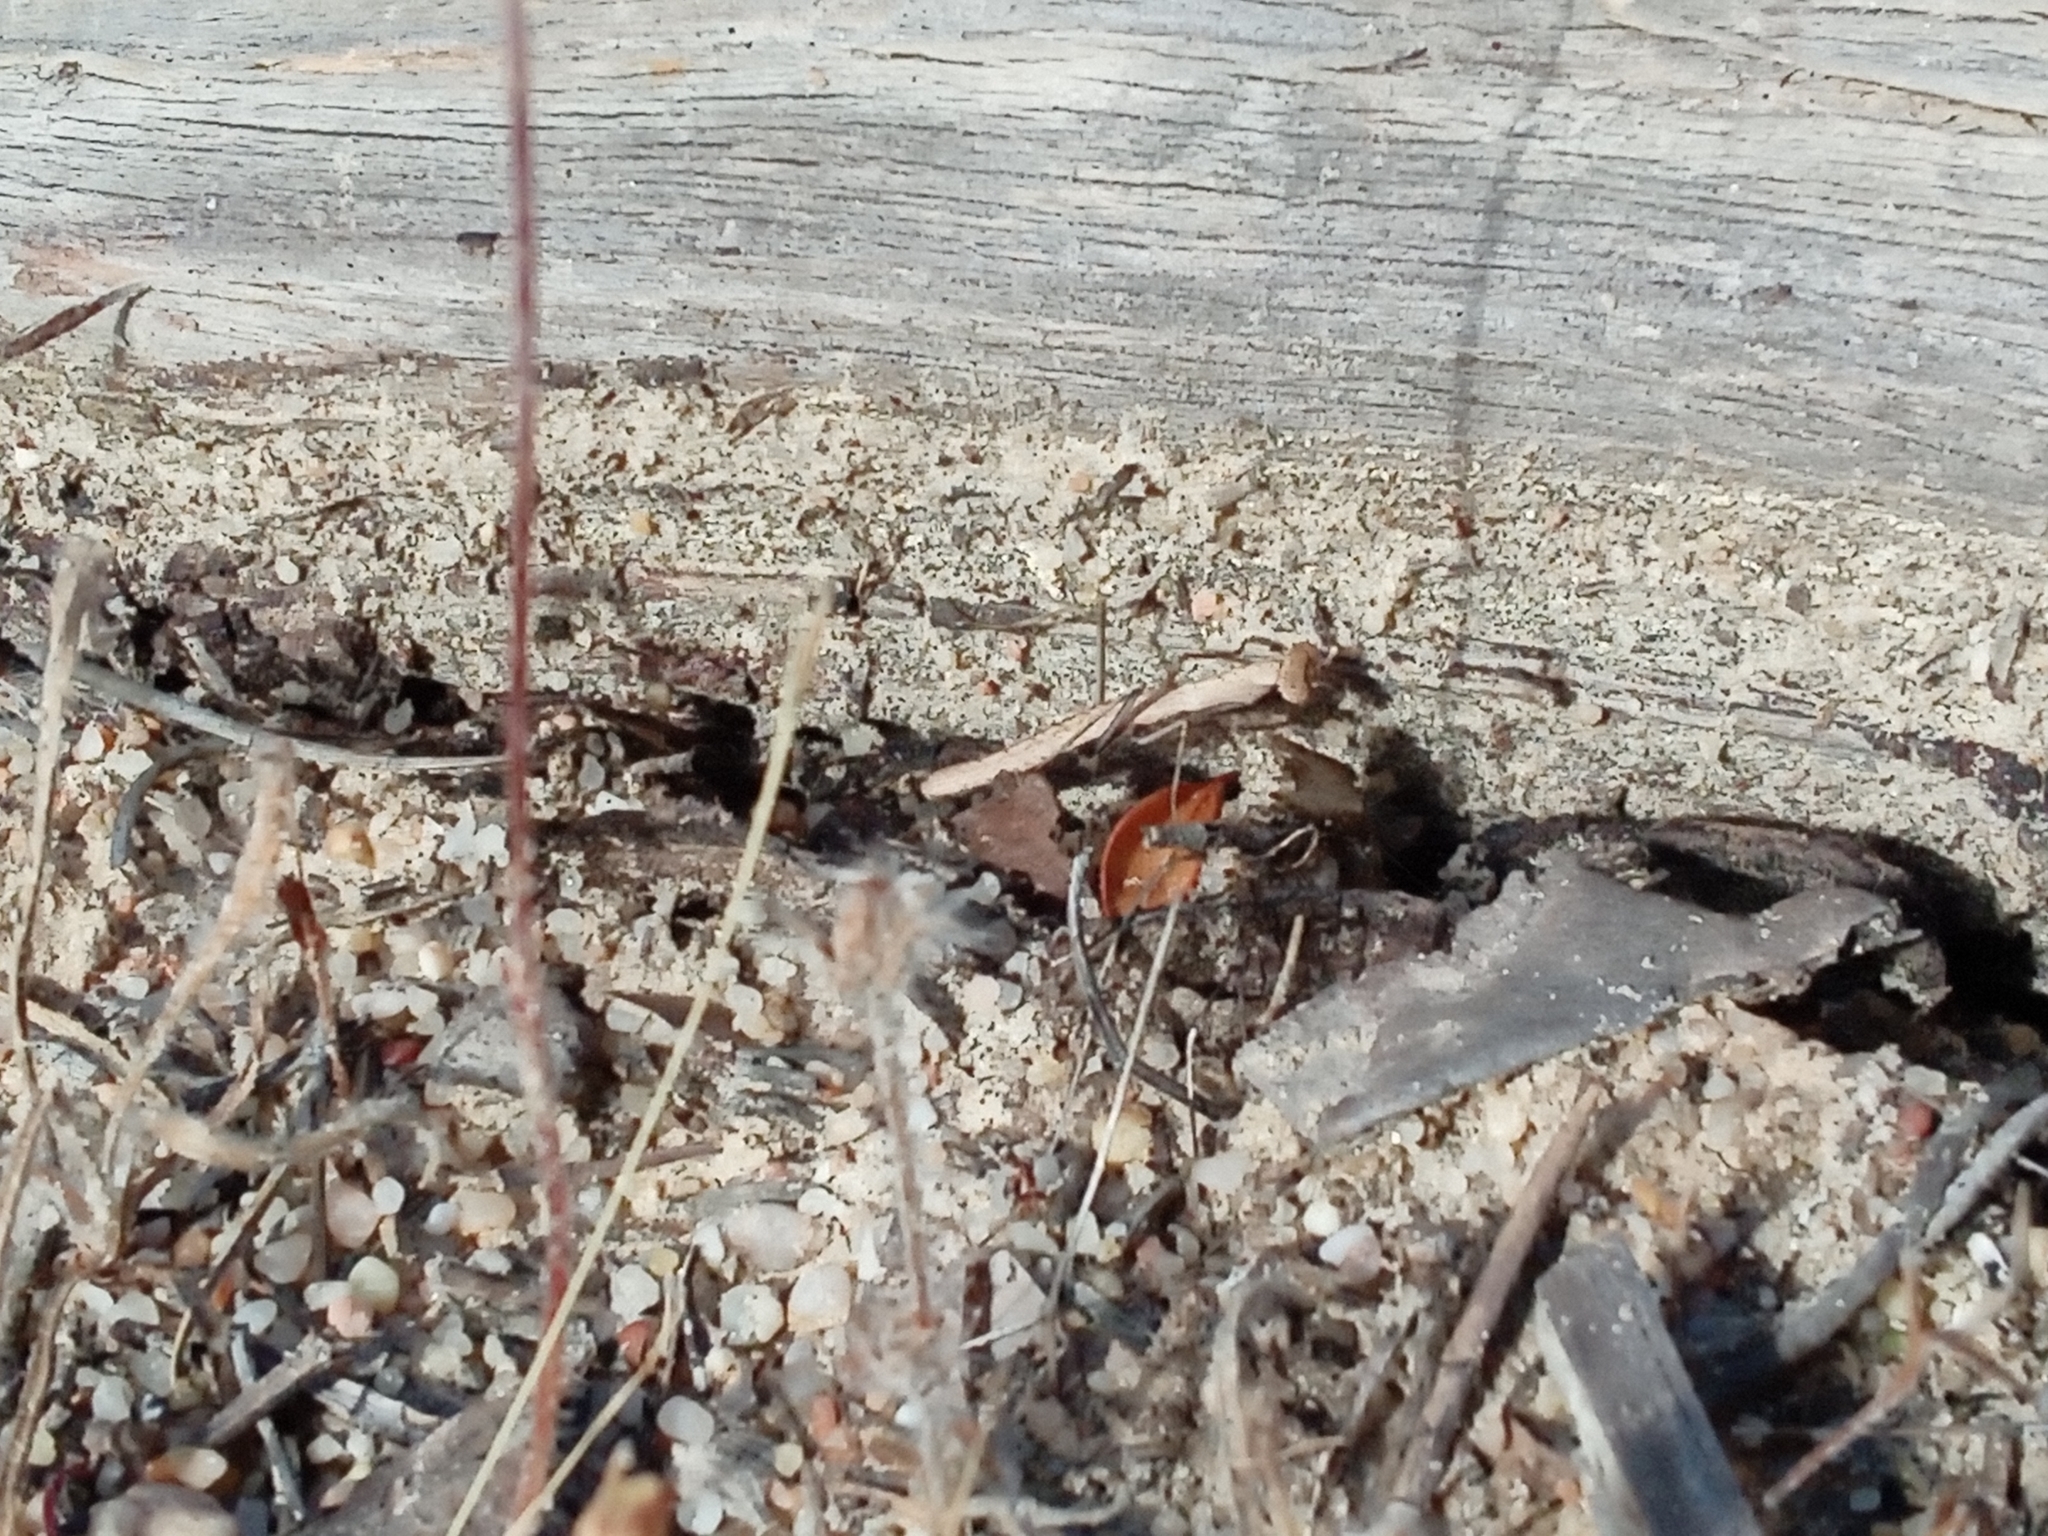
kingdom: Animalia
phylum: Arthropoda
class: Insecta
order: Mantodea
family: Rivetinidae
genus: Geomantis
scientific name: Geomantis larvoides
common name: Wingless ground mantis
